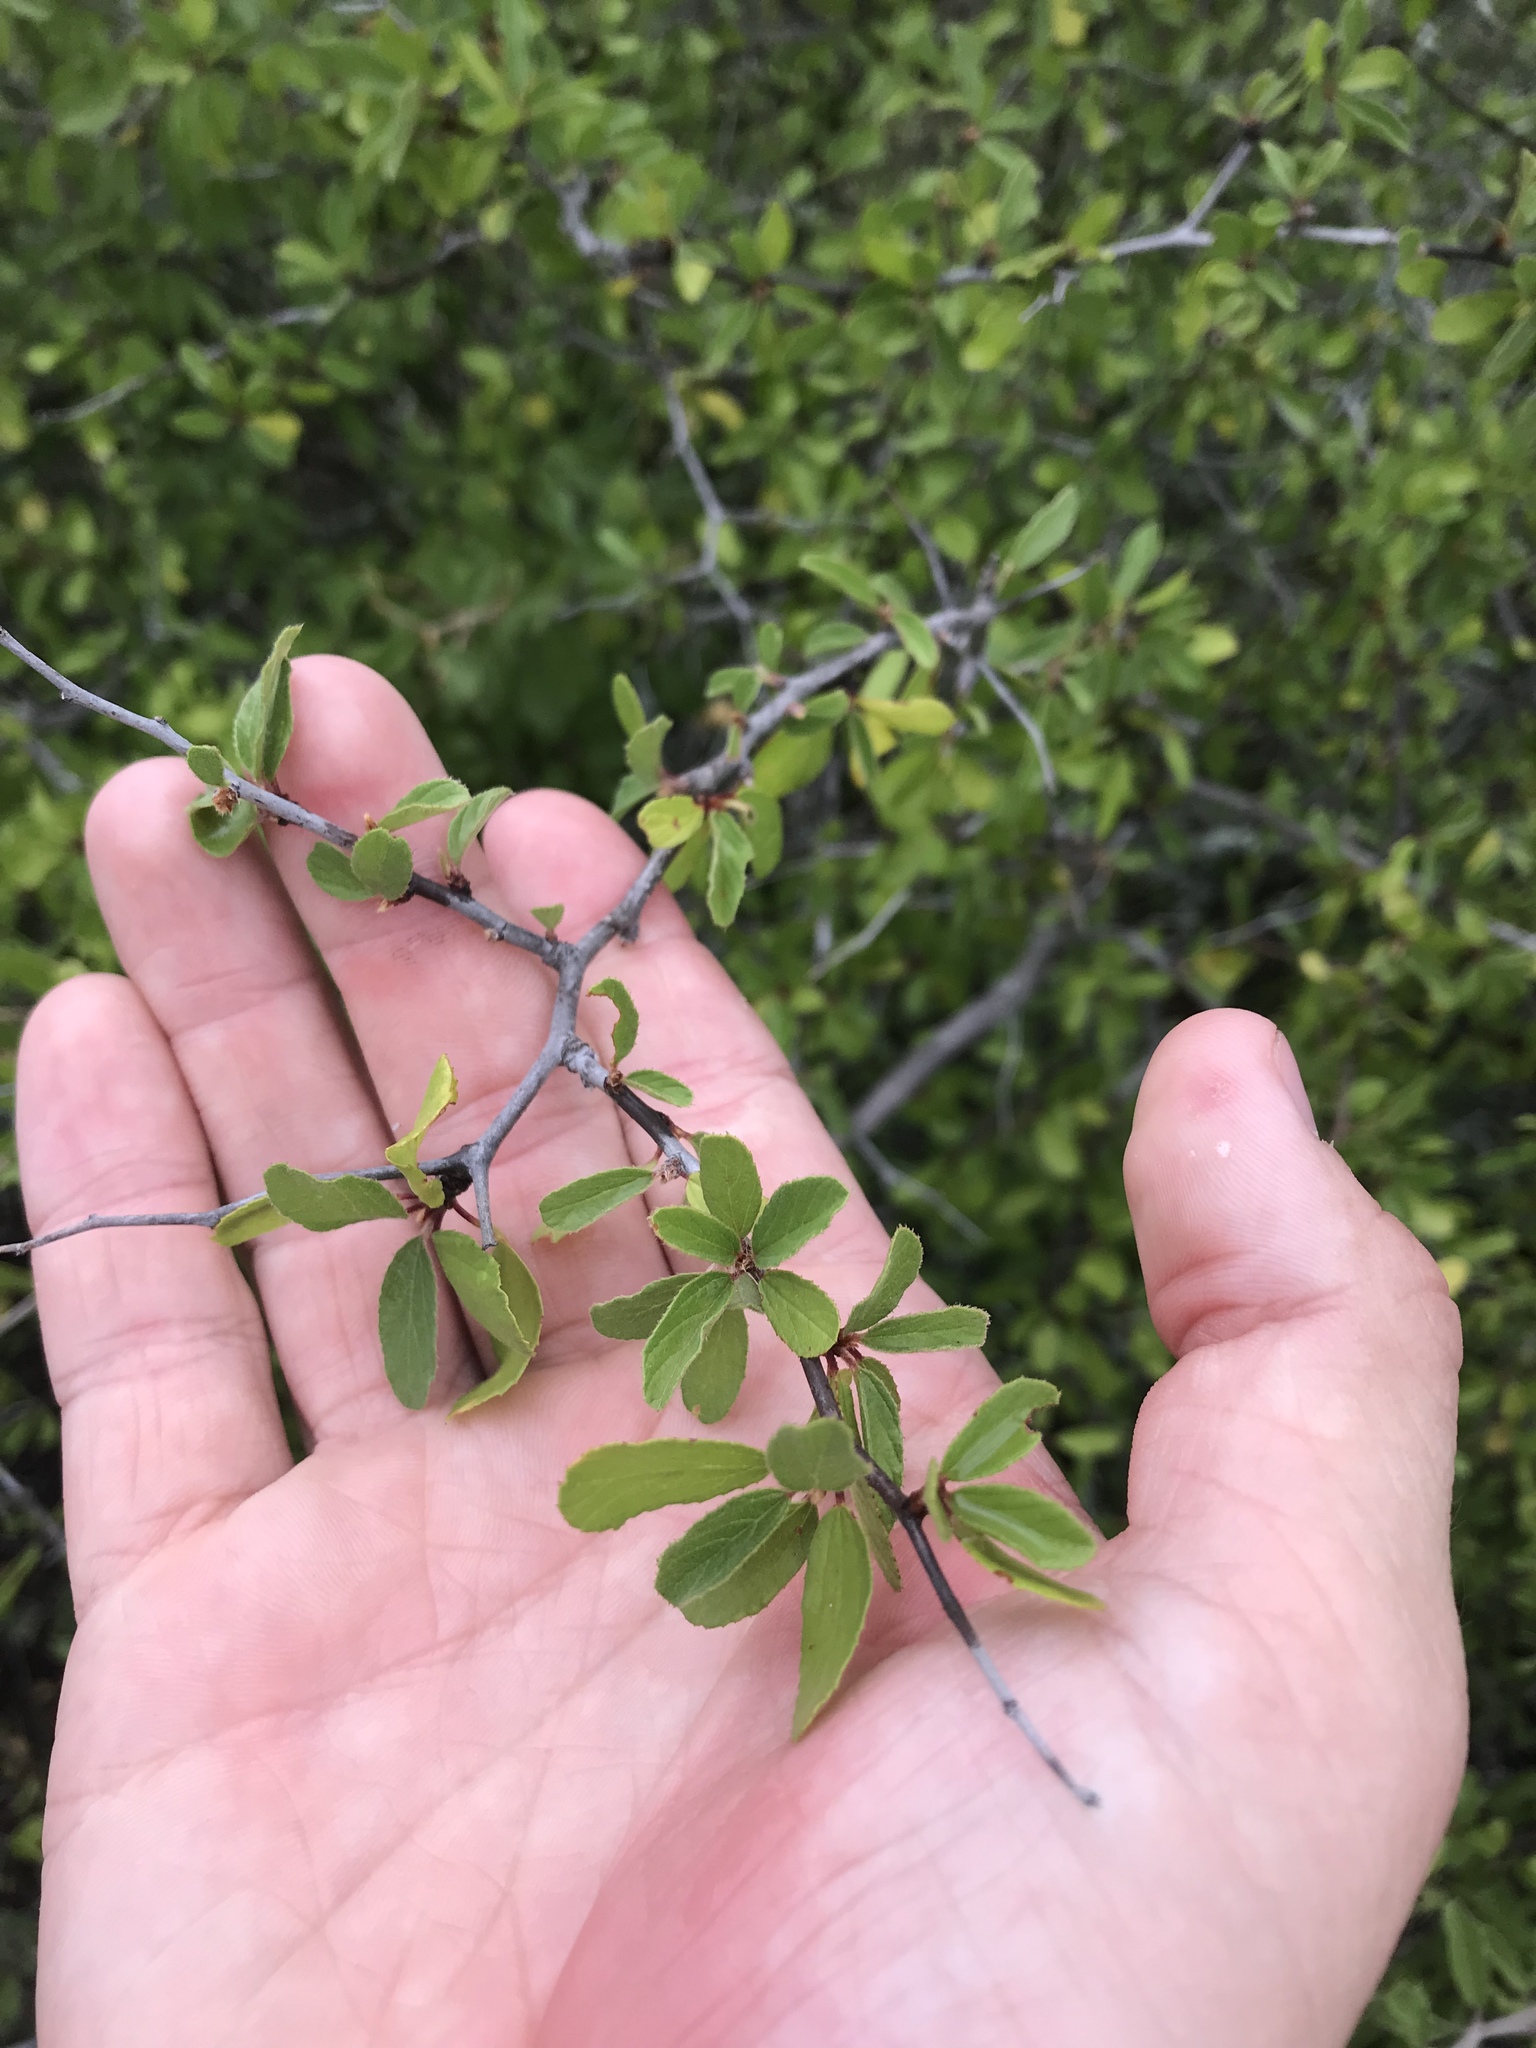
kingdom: Plantae
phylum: Tracheophyta
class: Magnoliopsida
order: Rosales
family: Rhamnaceae
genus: Colubrina
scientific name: Colubrina texensis
